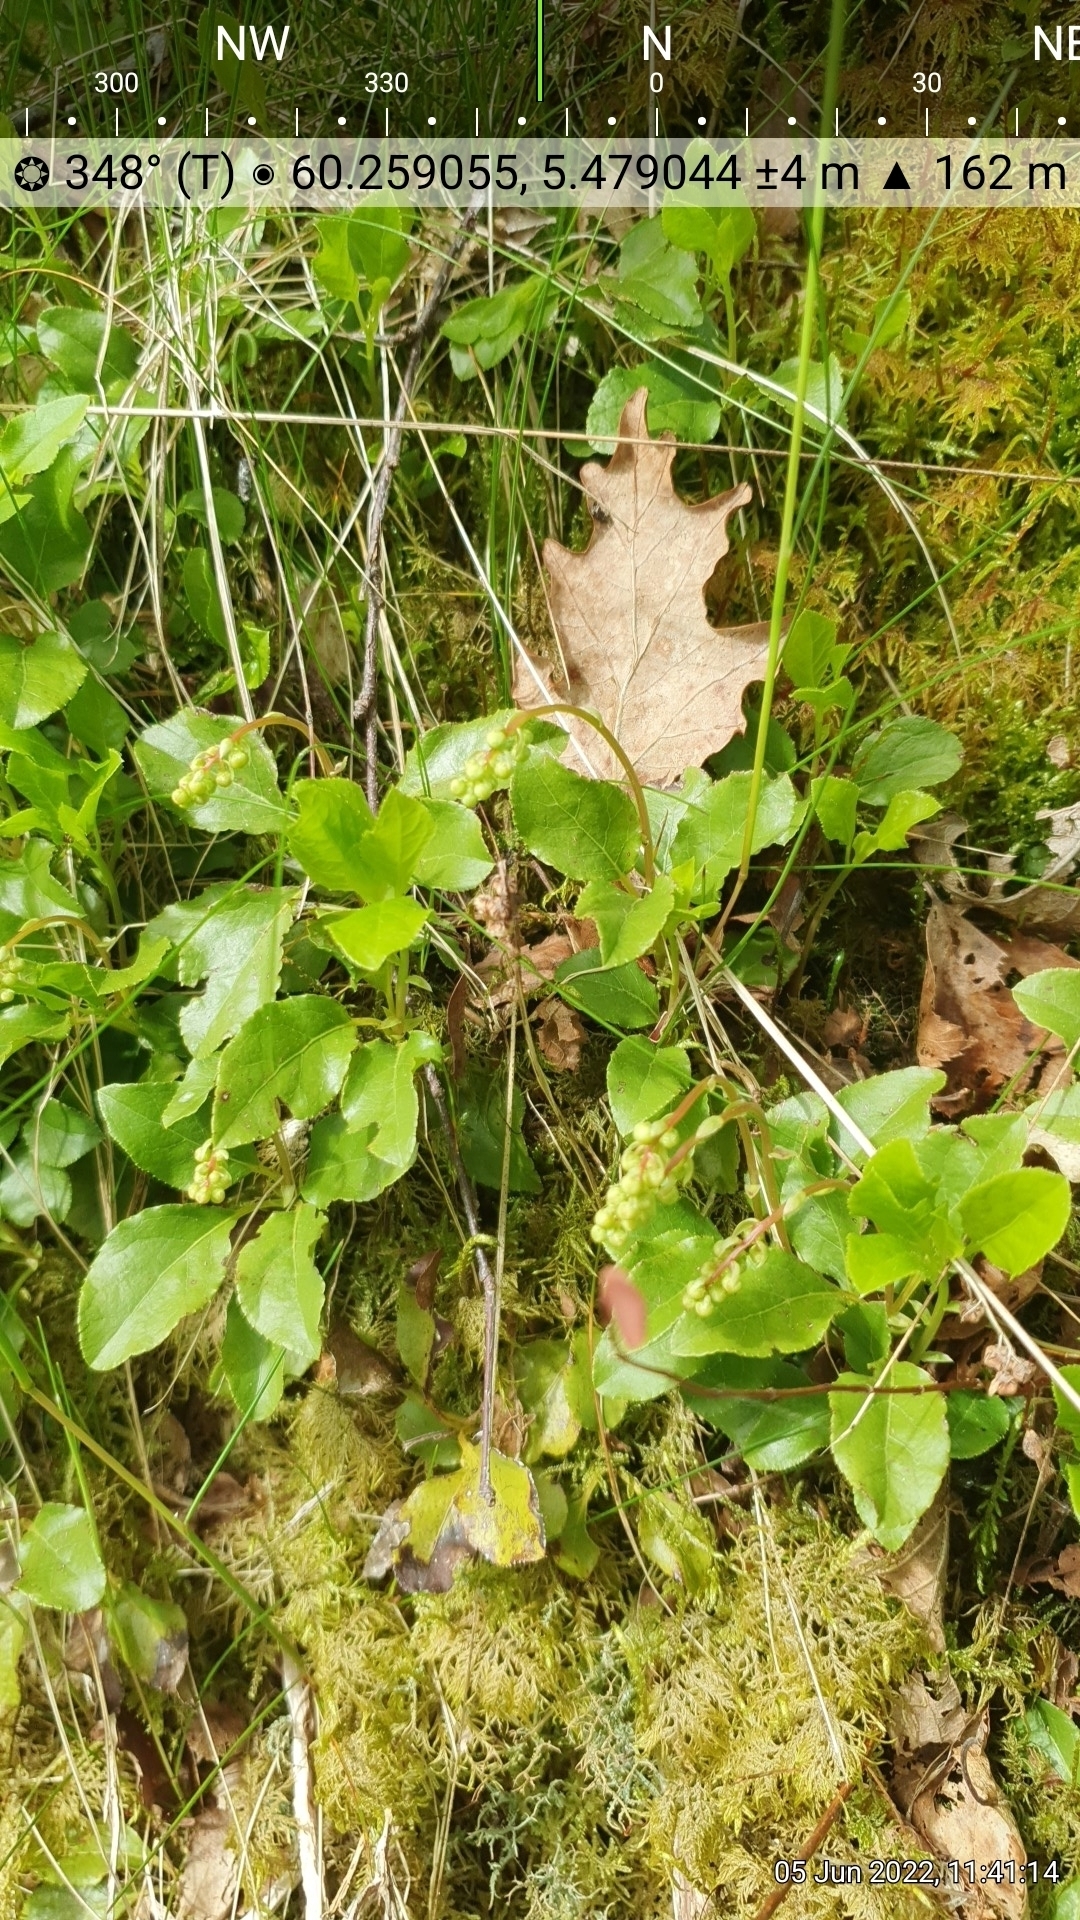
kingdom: Plantae
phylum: Tracheophyta
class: Magnoliopsida
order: Ericales
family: Ericaceae
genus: Orthilia
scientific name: Orthilia secunda
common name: One-sided orthilia
